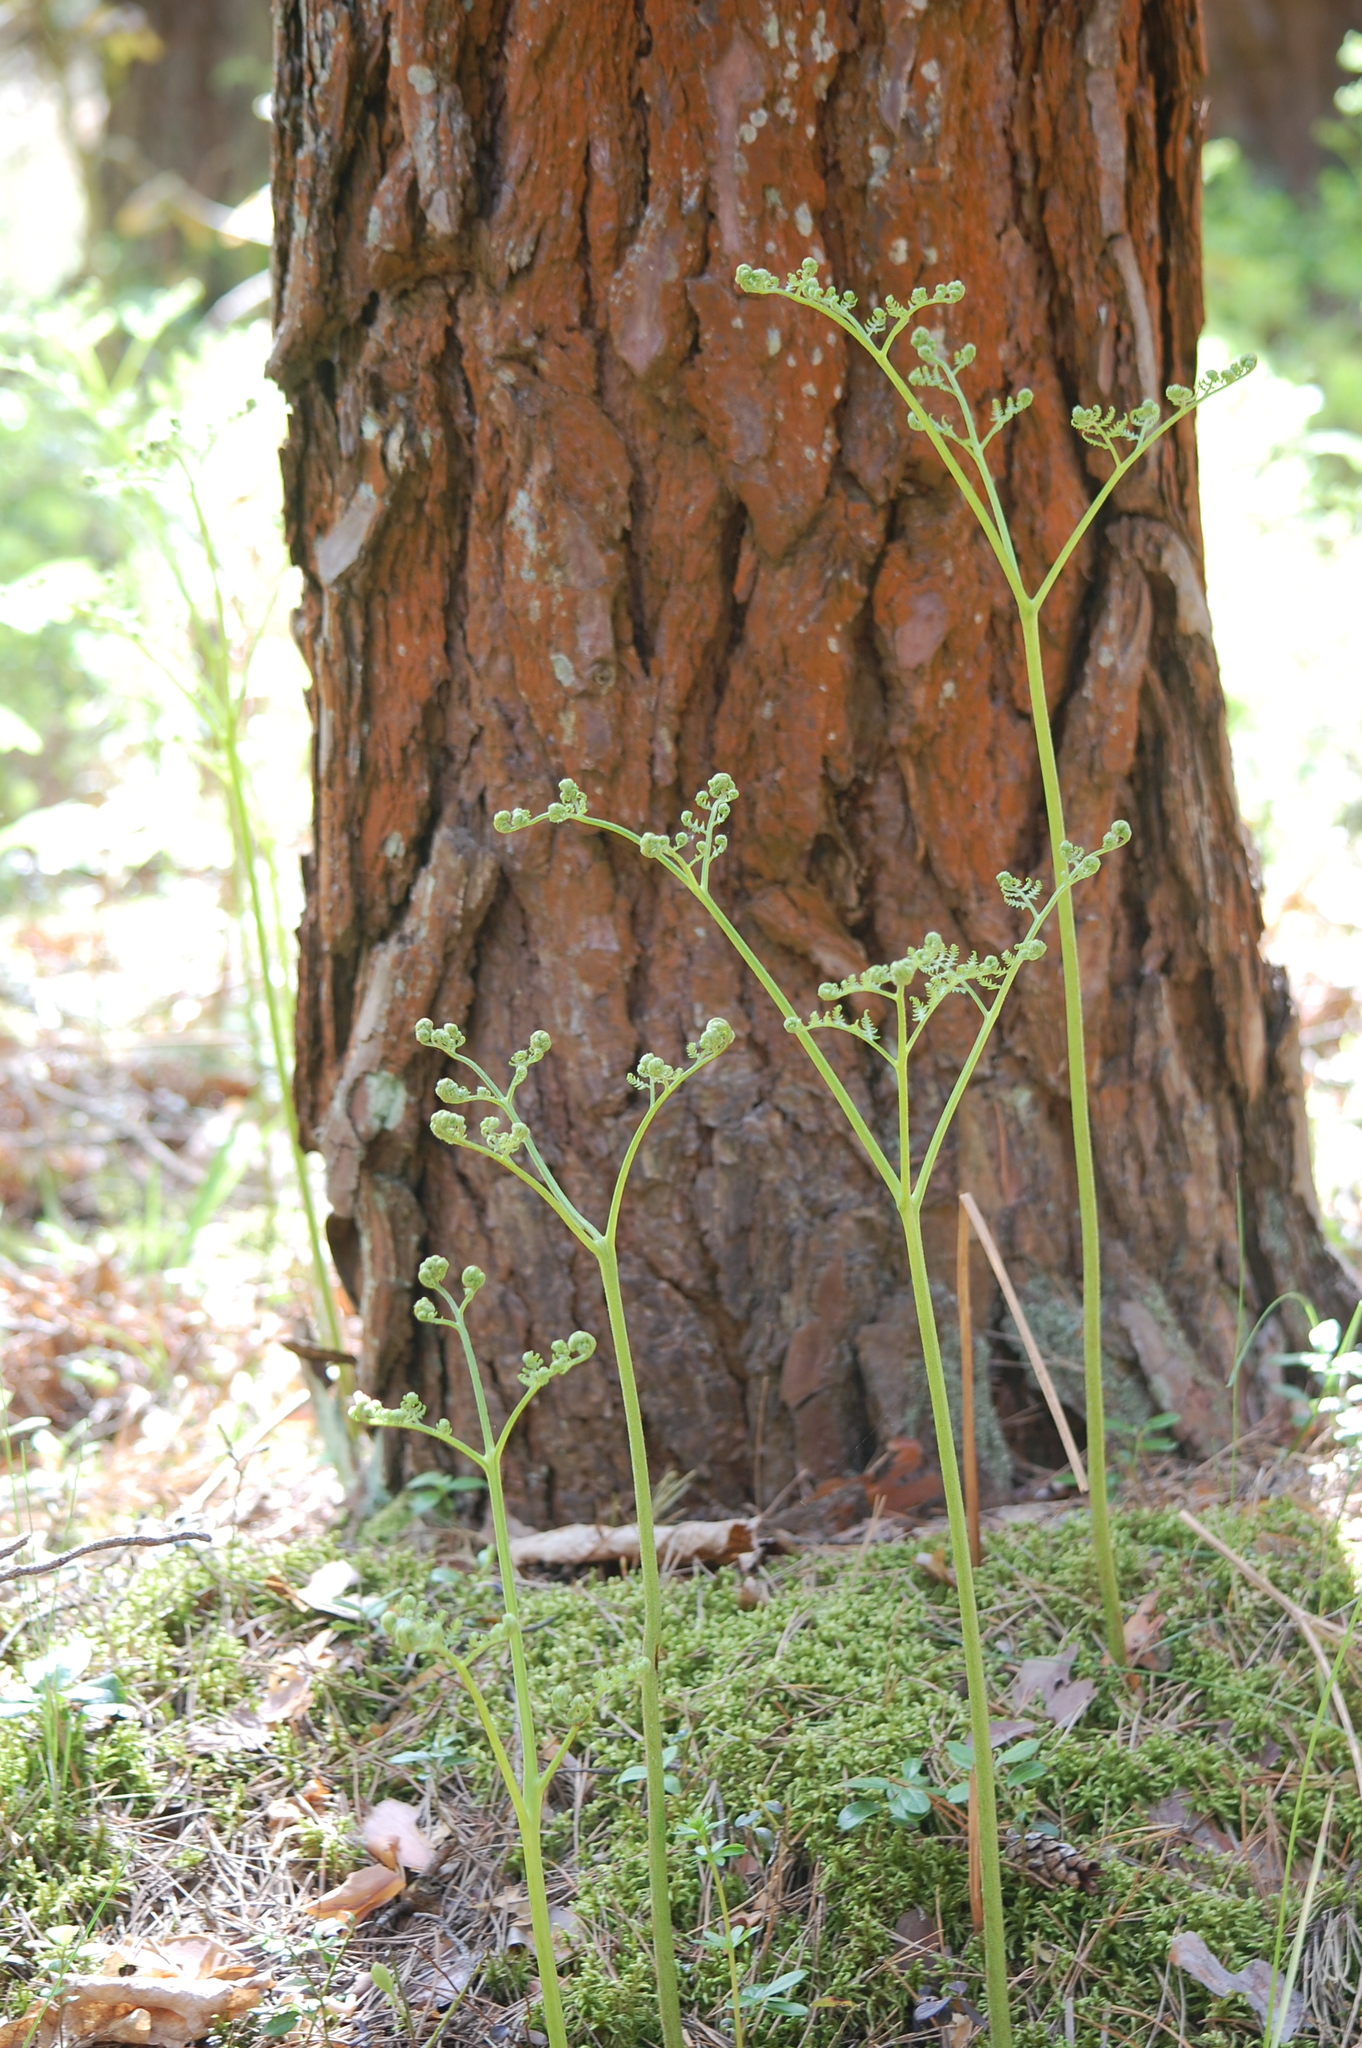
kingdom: Plantae
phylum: Tracheophyta
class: Polypodiopsida
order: Polypodiales
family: Dennstaedtiaceae
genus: Pteridium
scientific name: Pteridium aquilinum
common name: Bracken
